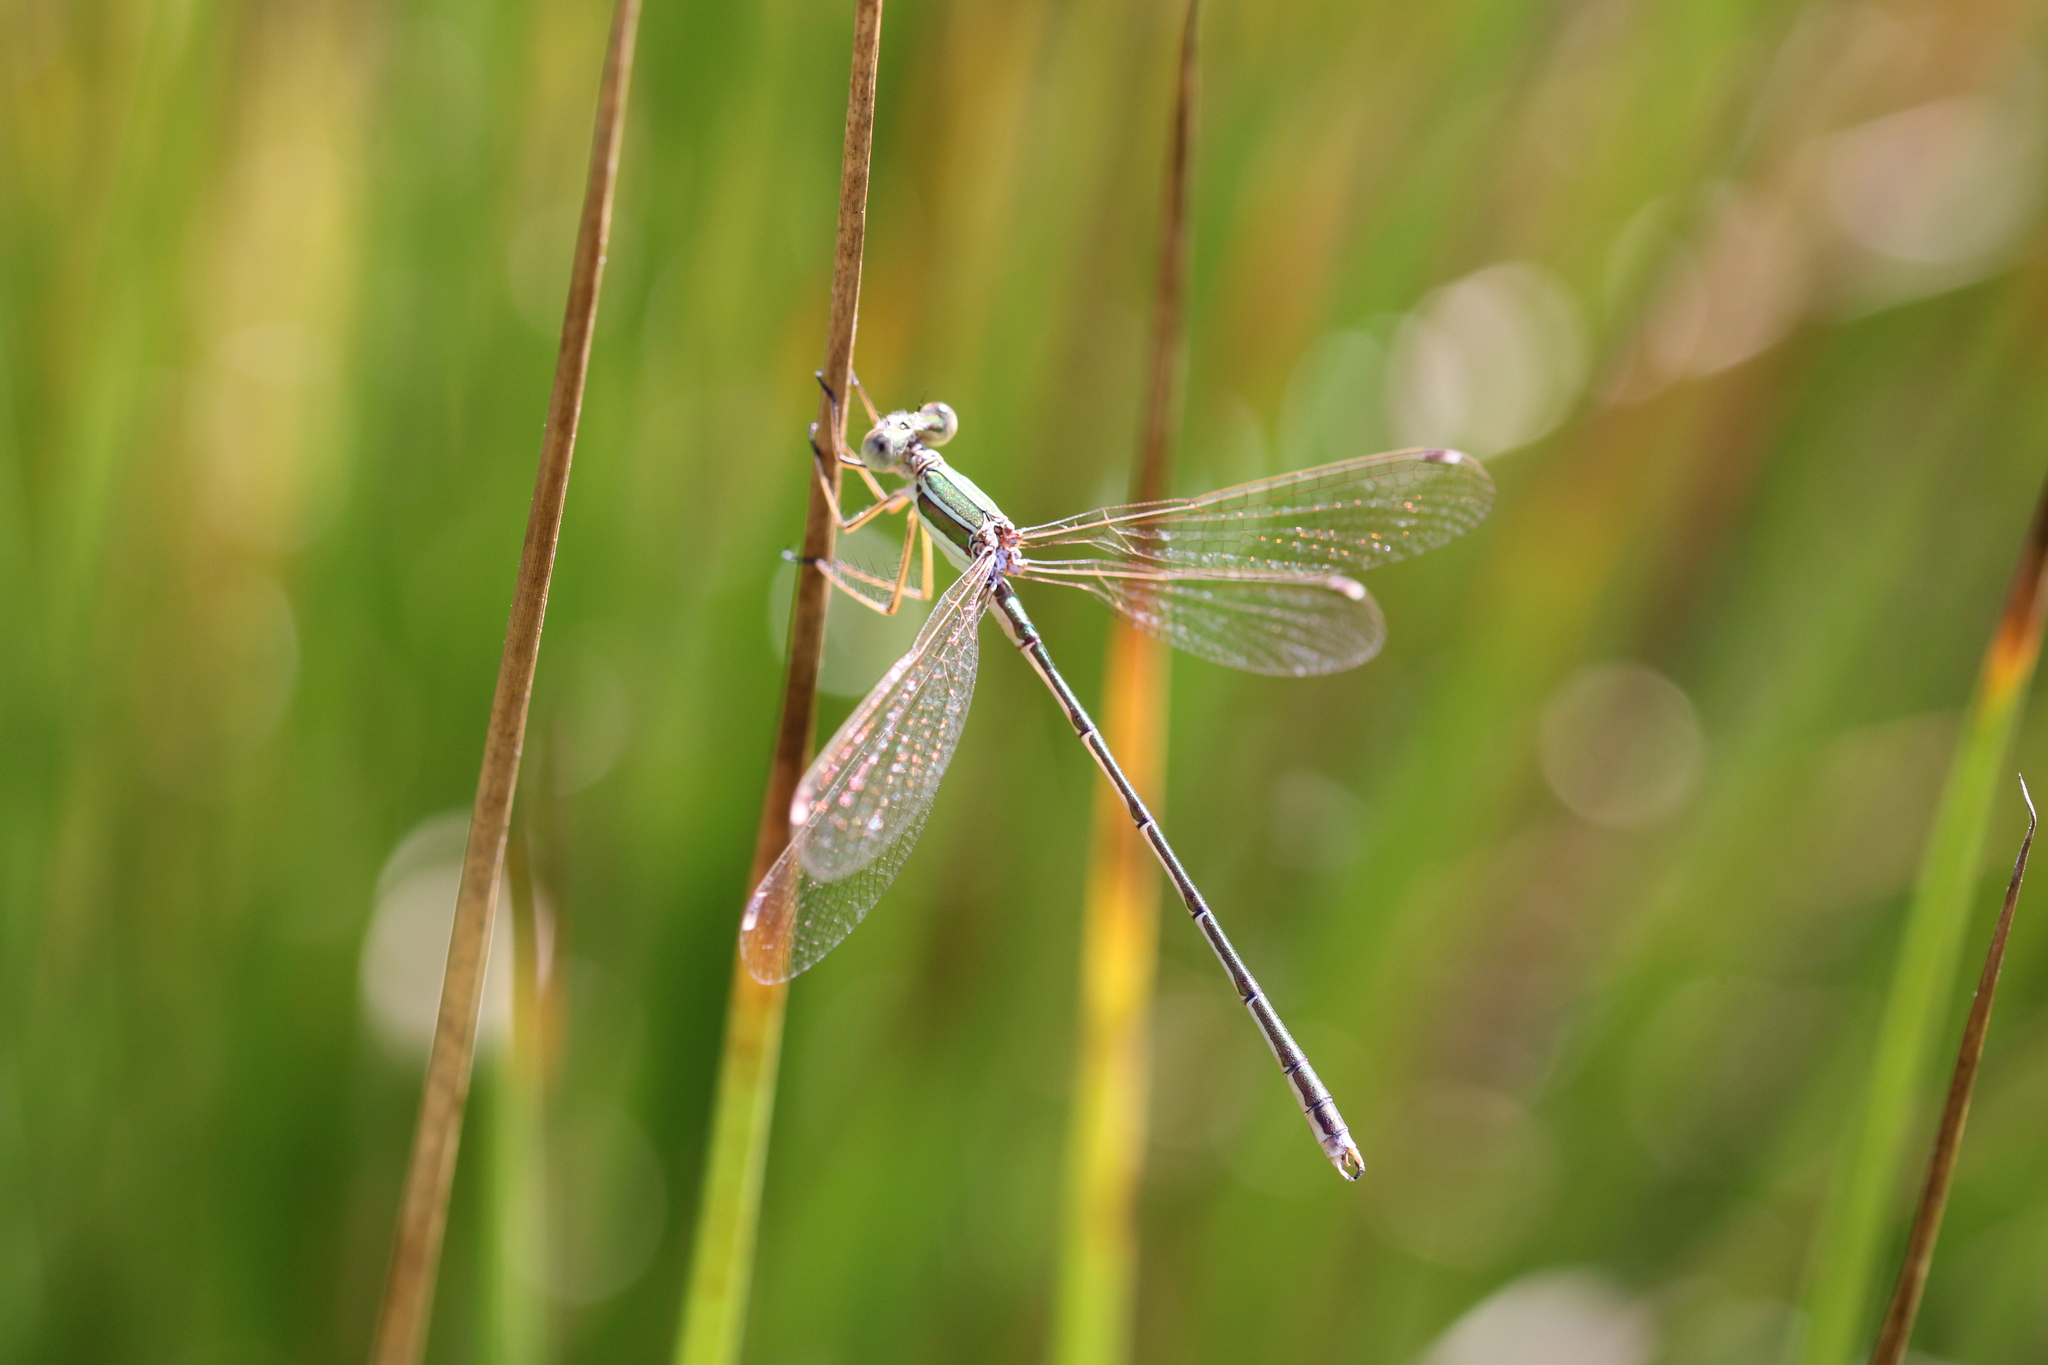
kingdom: Animalia
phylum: Arthropoda
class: Insecta
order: Odonata
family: Lestidae
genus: Lestes
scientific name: Lestes barbarus
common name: Migrant spreadwing
